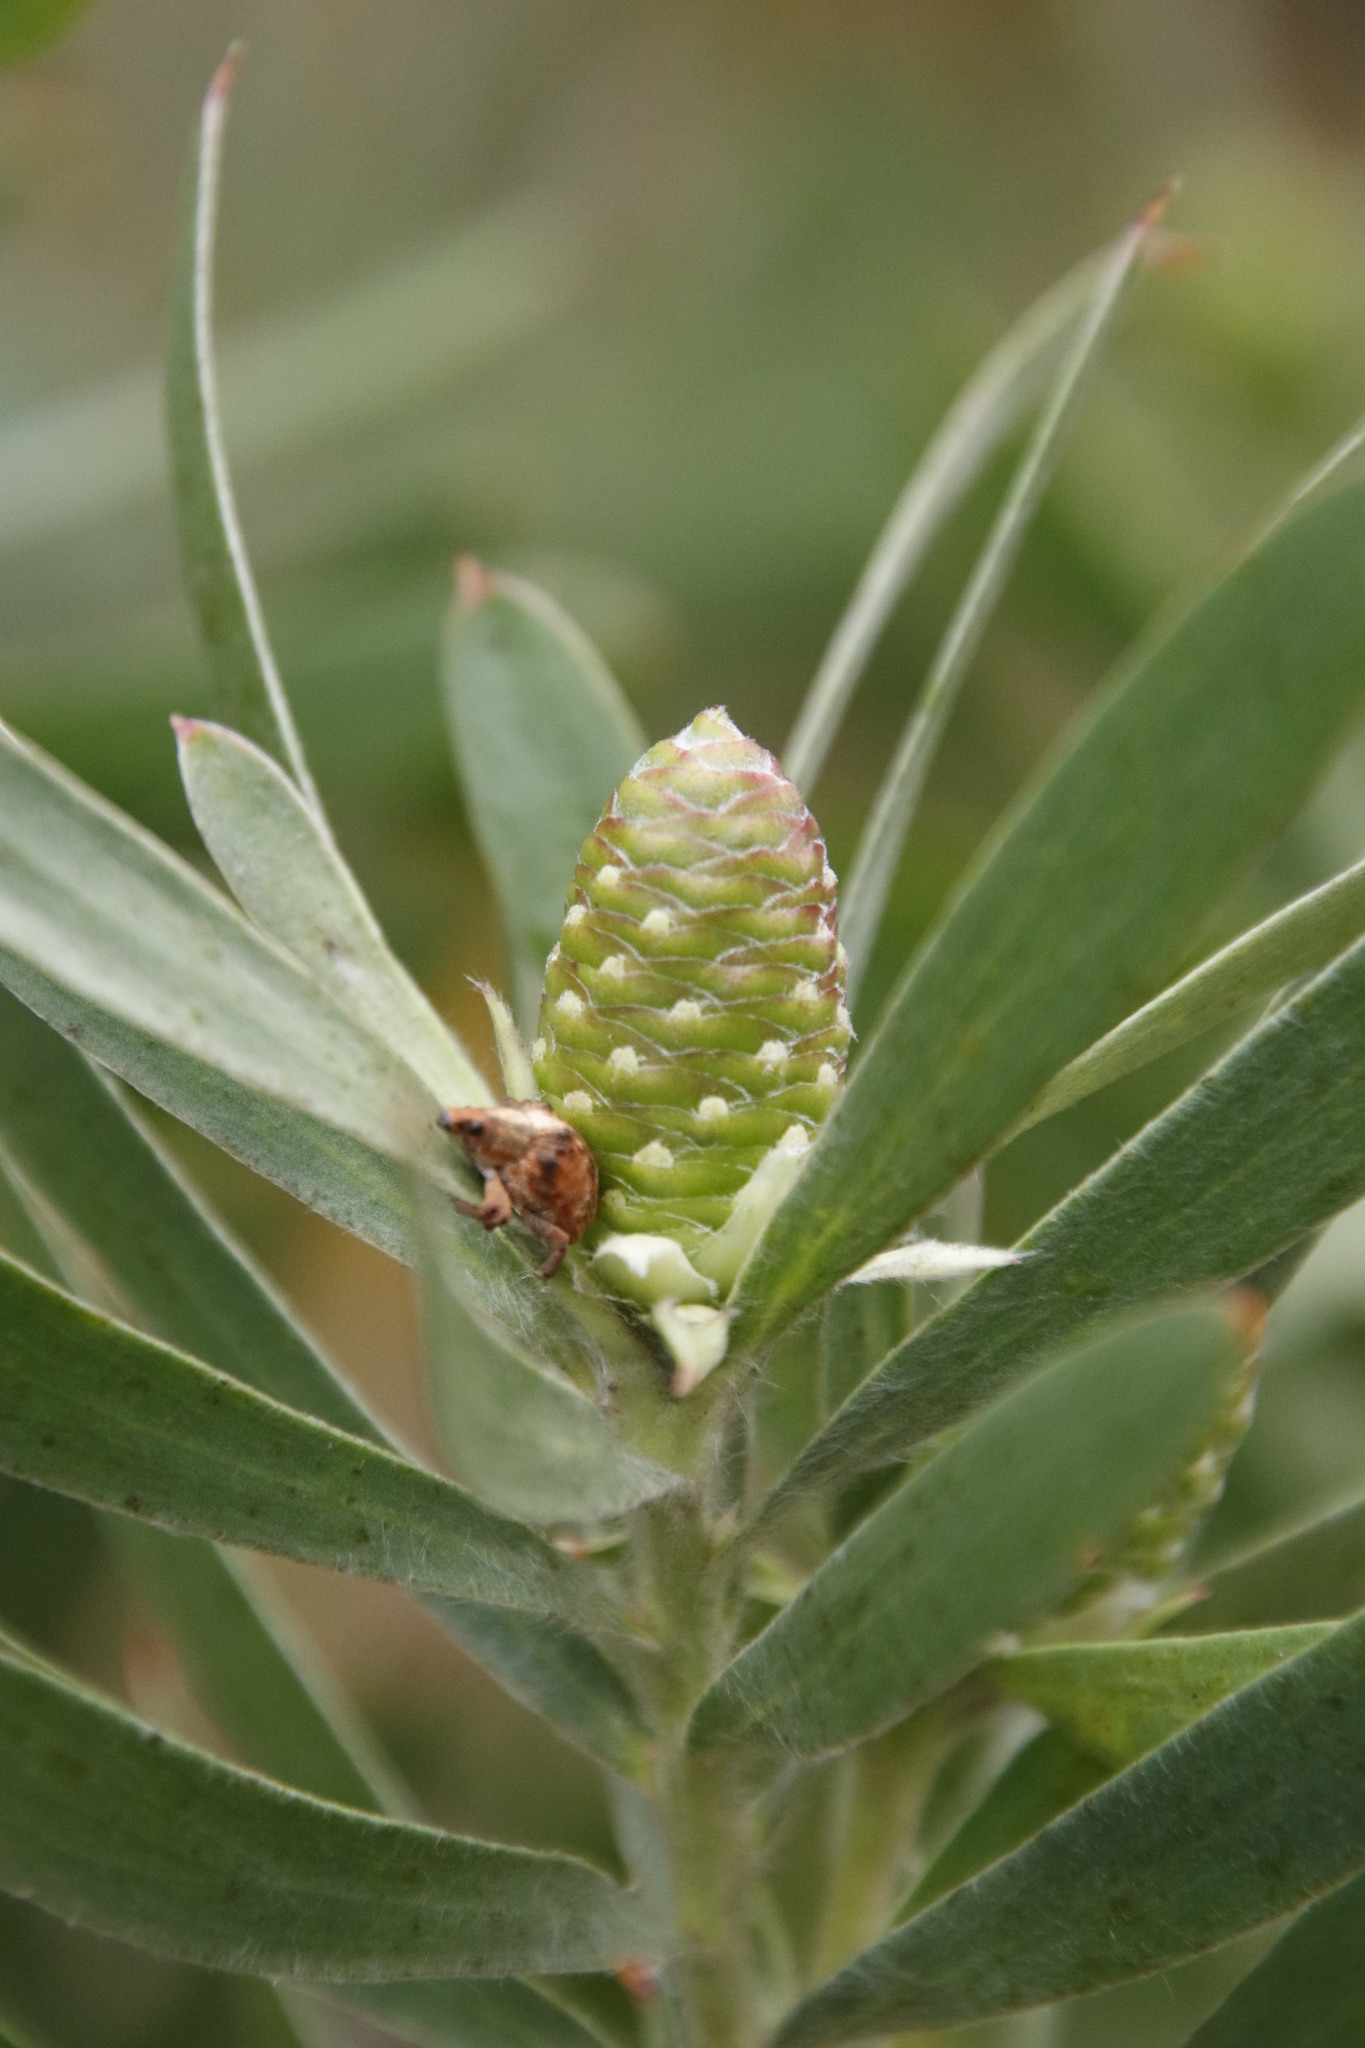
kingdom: Plantae
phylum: Tracheophyta
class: Magnoliopsida
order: Proteales
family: Proteaceae
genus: Leucadendron
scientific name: Leucadendron macowanii
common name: Acacia-leaf conebush
